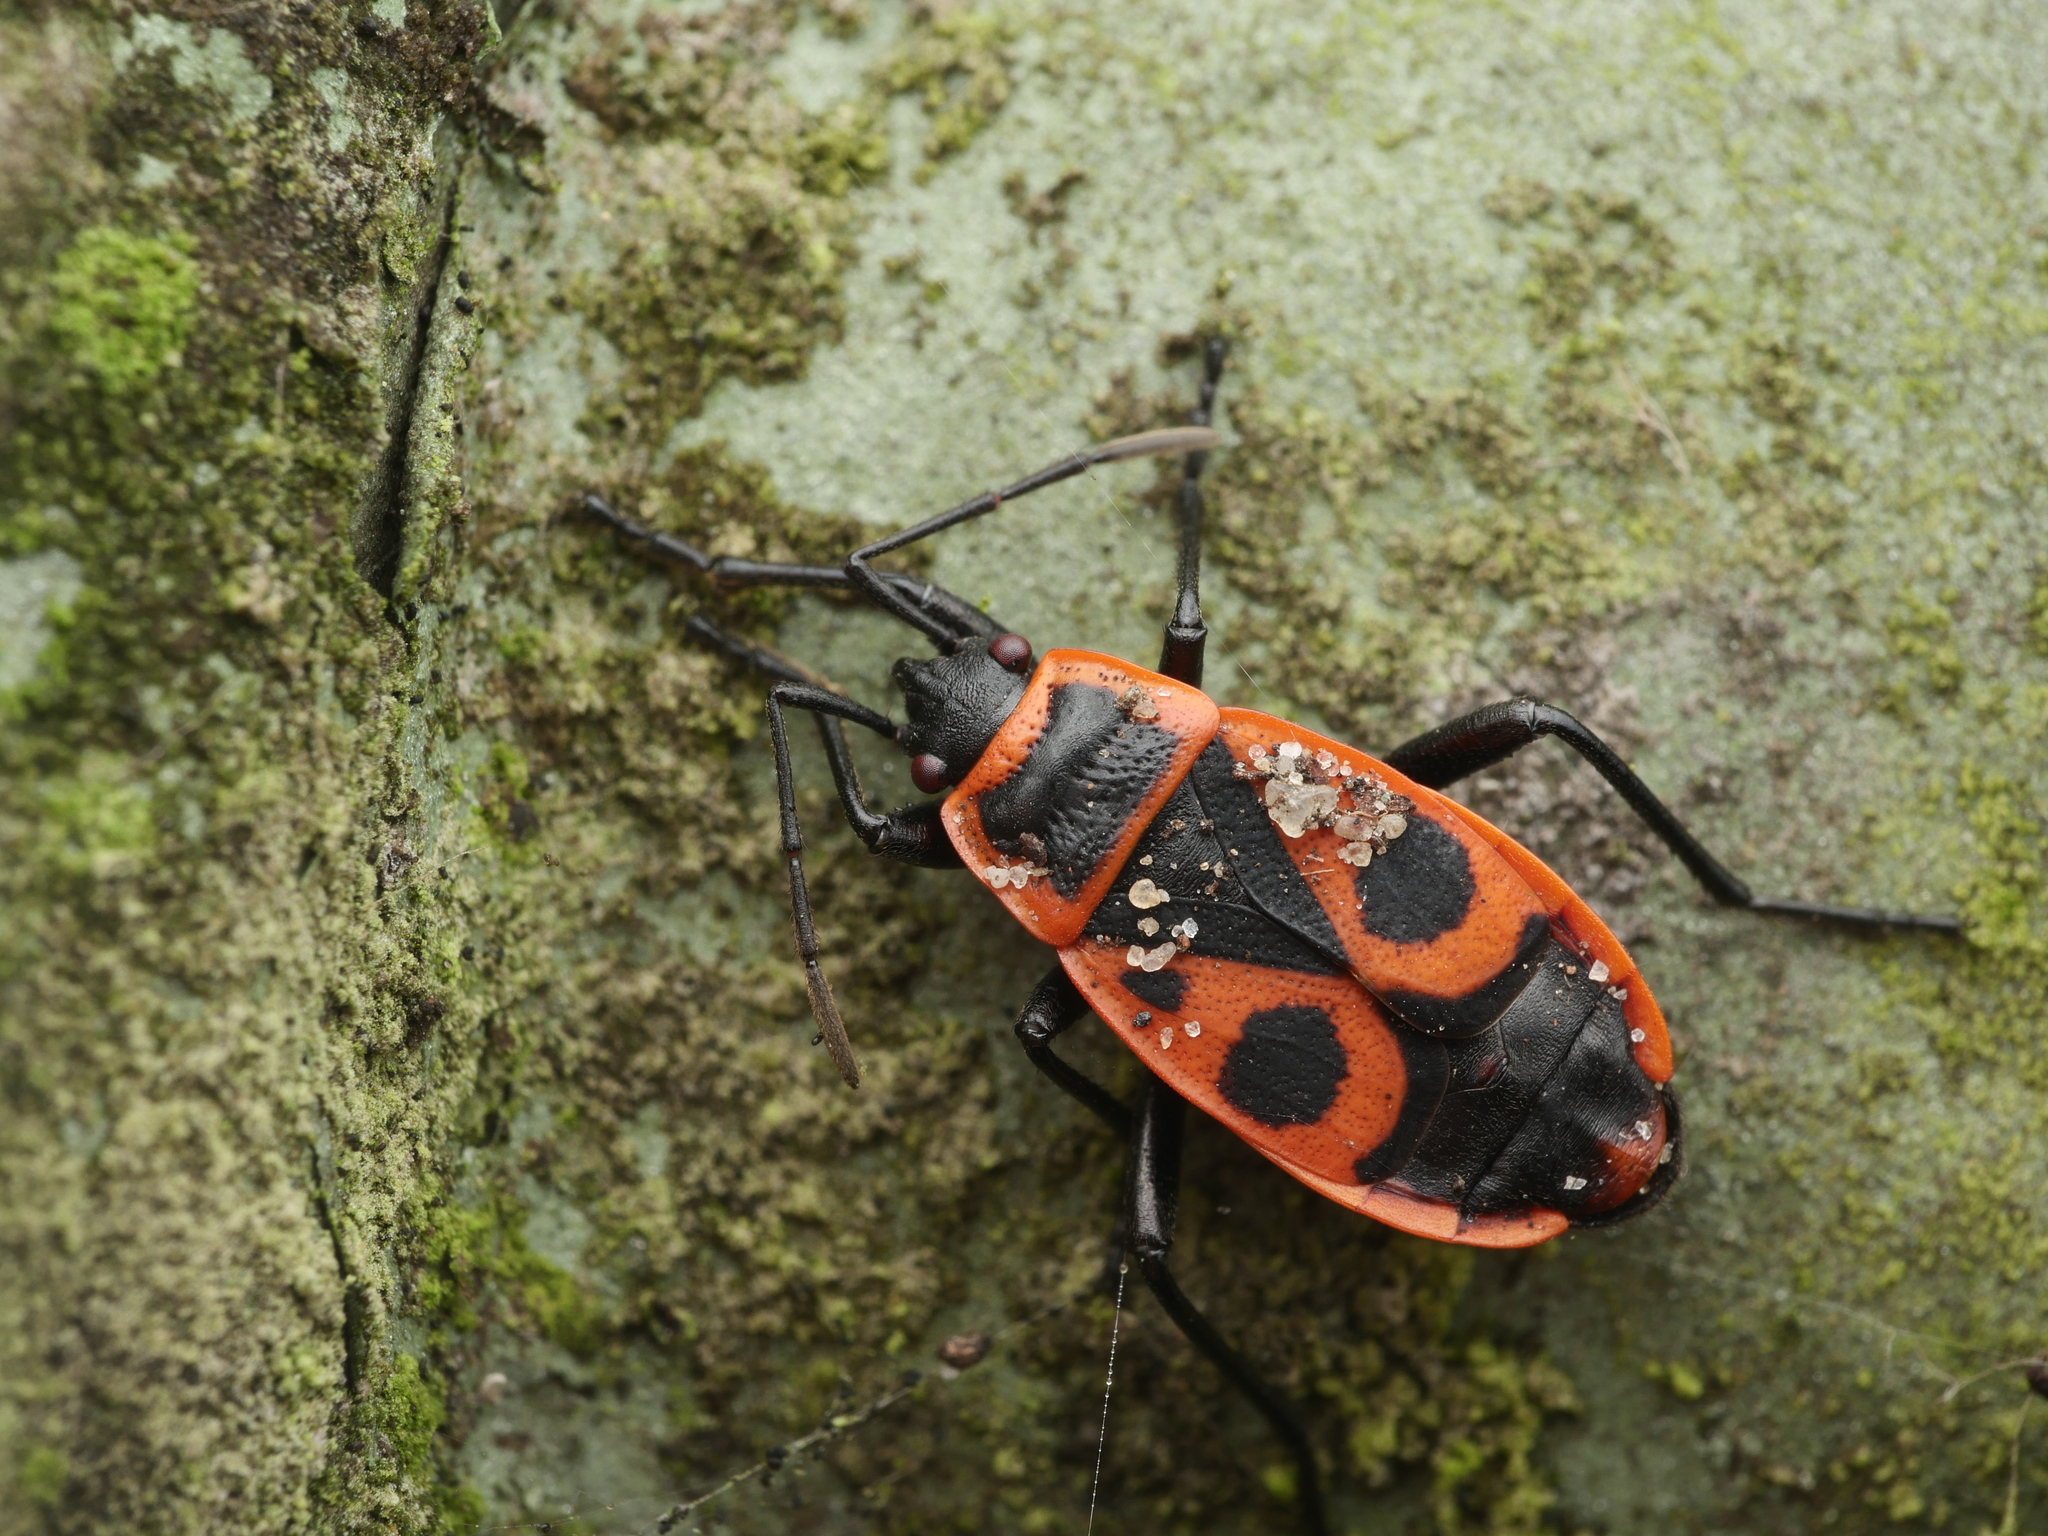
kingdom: Animalia
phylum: Arthropoda
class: Insecta
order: Hemiptera
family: Pyrrhocoridae
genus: Pyrrhocoris
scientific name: Pyrrhocoris apterus
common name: Firebug
